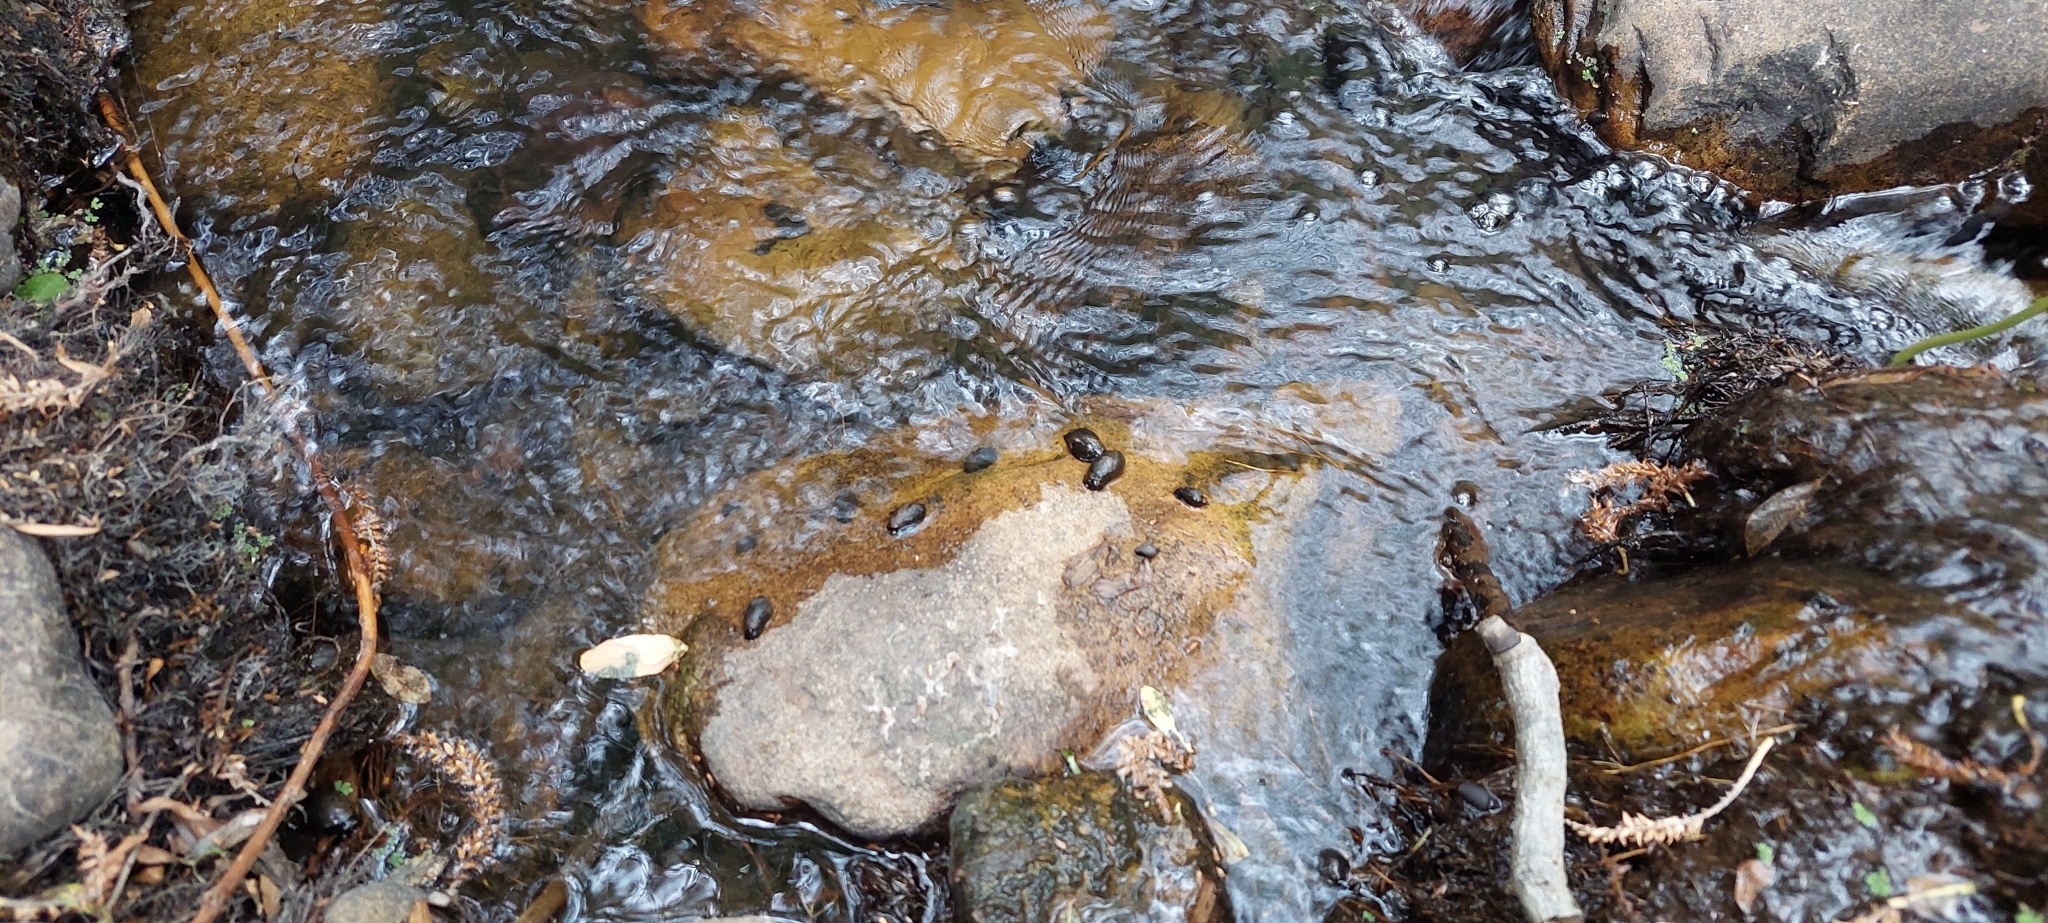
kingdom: Animalia
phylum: Mollusca
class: Gastropoda
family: Chilinidae
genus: Chilina
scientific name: Chilina parchappii
